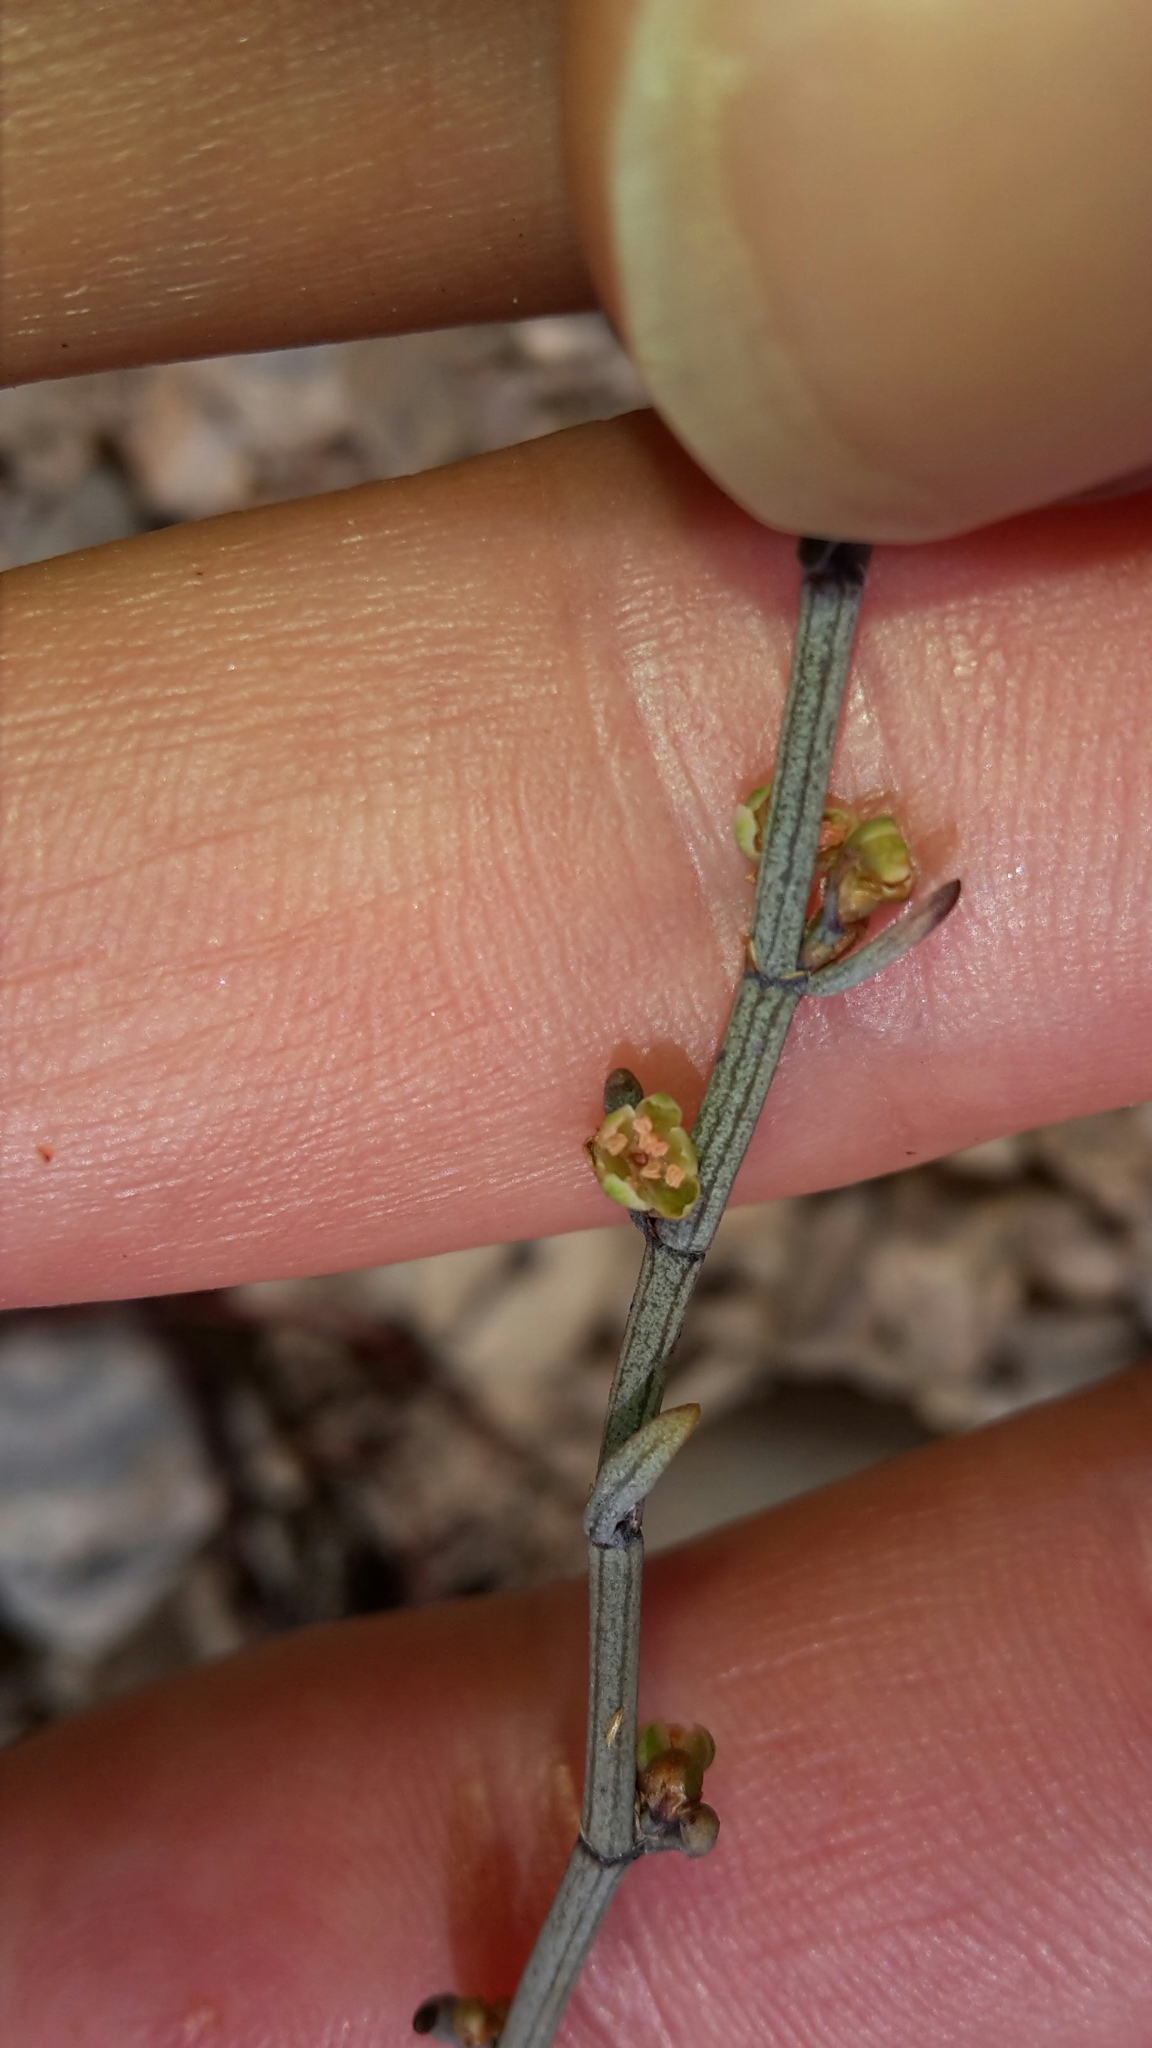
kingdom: Plantae
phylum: Tracheophyta
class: Magnoliopsida
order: Caryophyllales
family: Polygonaceae
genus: Muehlenbeckia
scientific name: Muehlenbeckia ephedroides
